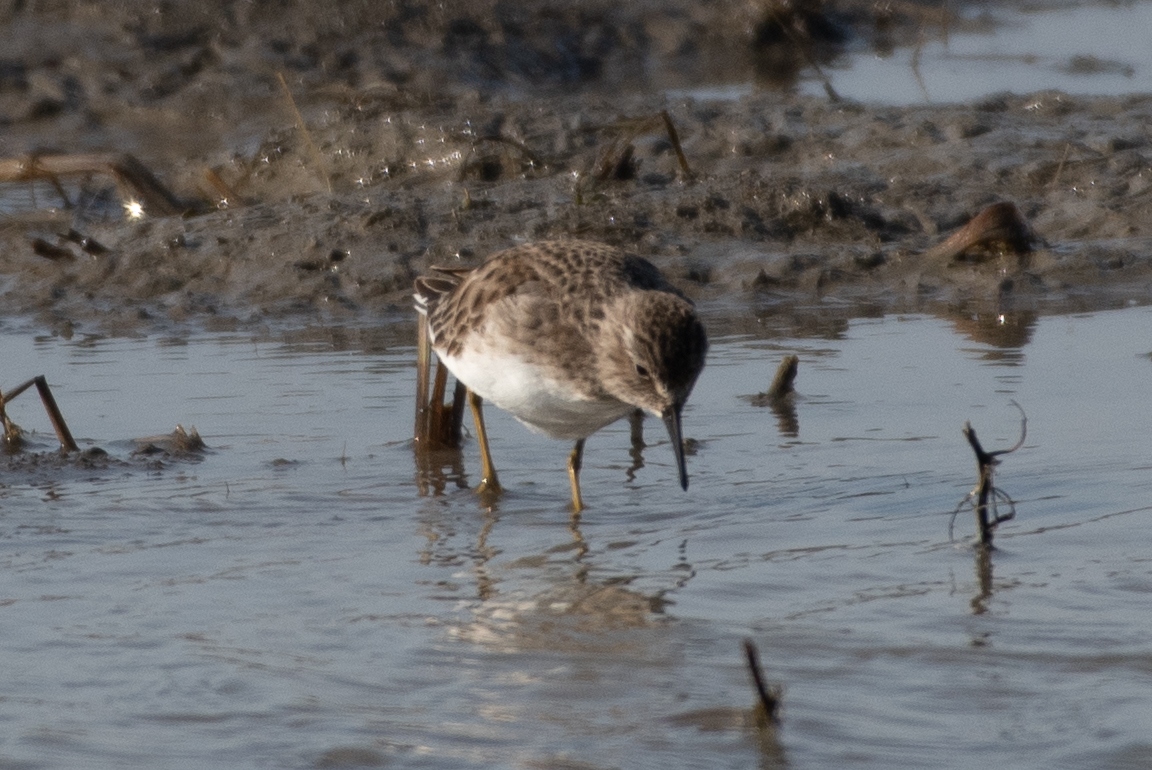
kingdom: Animalia
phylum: Chordata
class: Aves
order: Charadriiformes
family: Scolopacidae
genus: Calidris
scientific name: Calidris minutilla
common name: Least sandpiper
